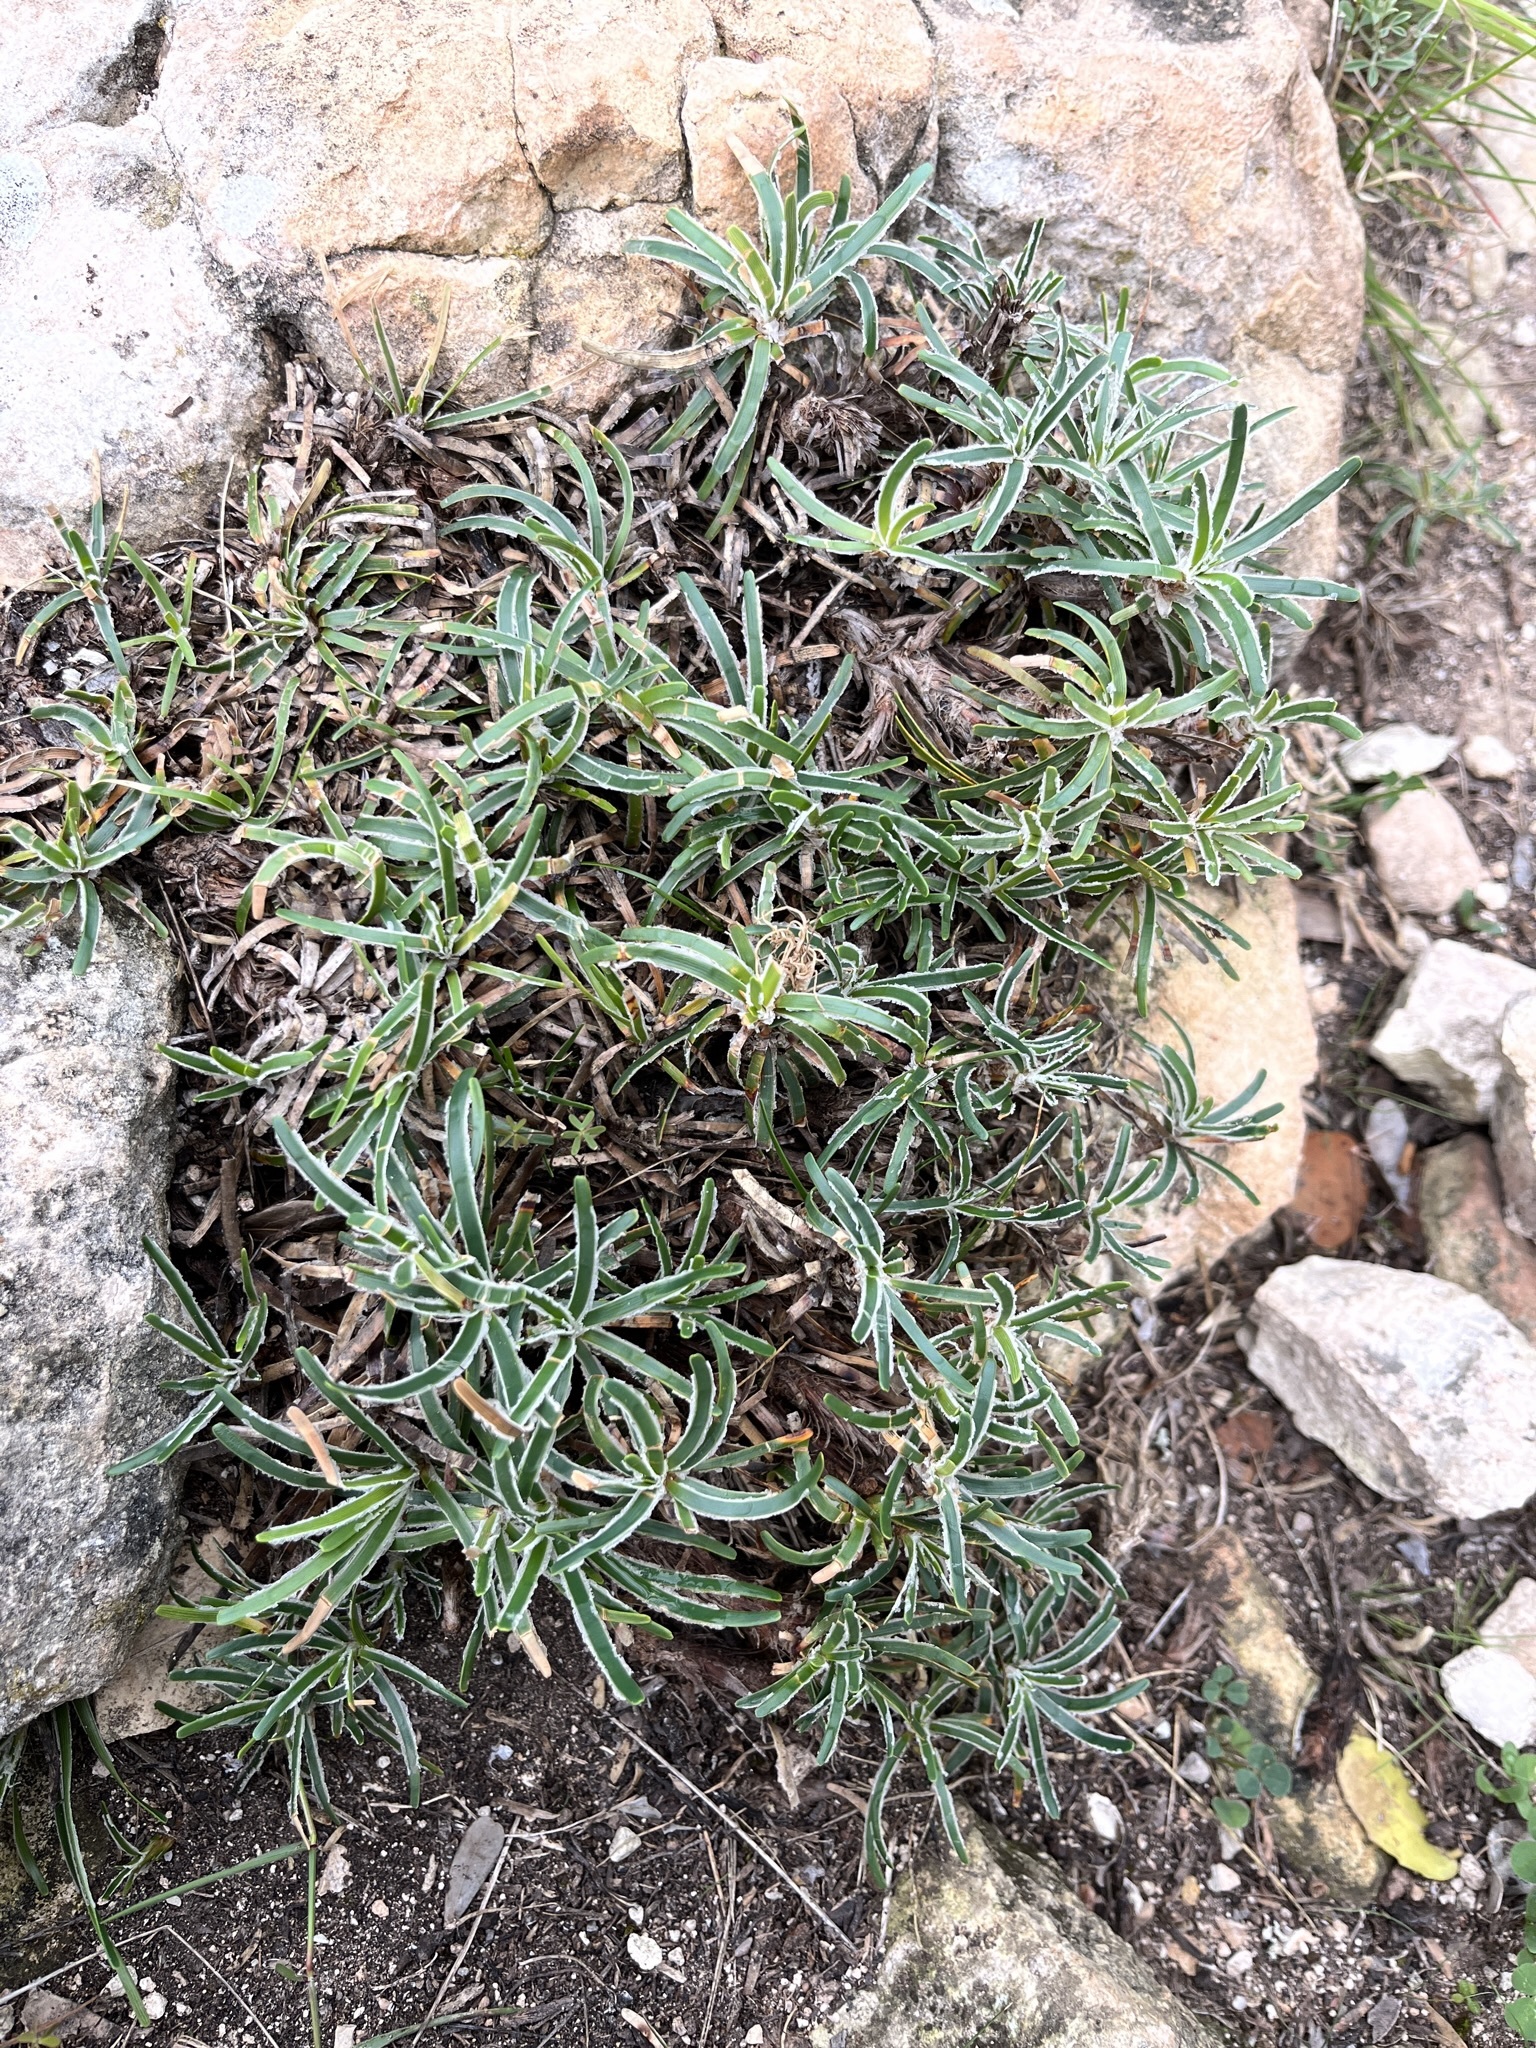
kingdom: Plantae
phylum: Tracheophyta
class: Liliopsida
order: Poales
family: Cyperaceae
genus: Ficinia
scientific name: Ficinia truncata
